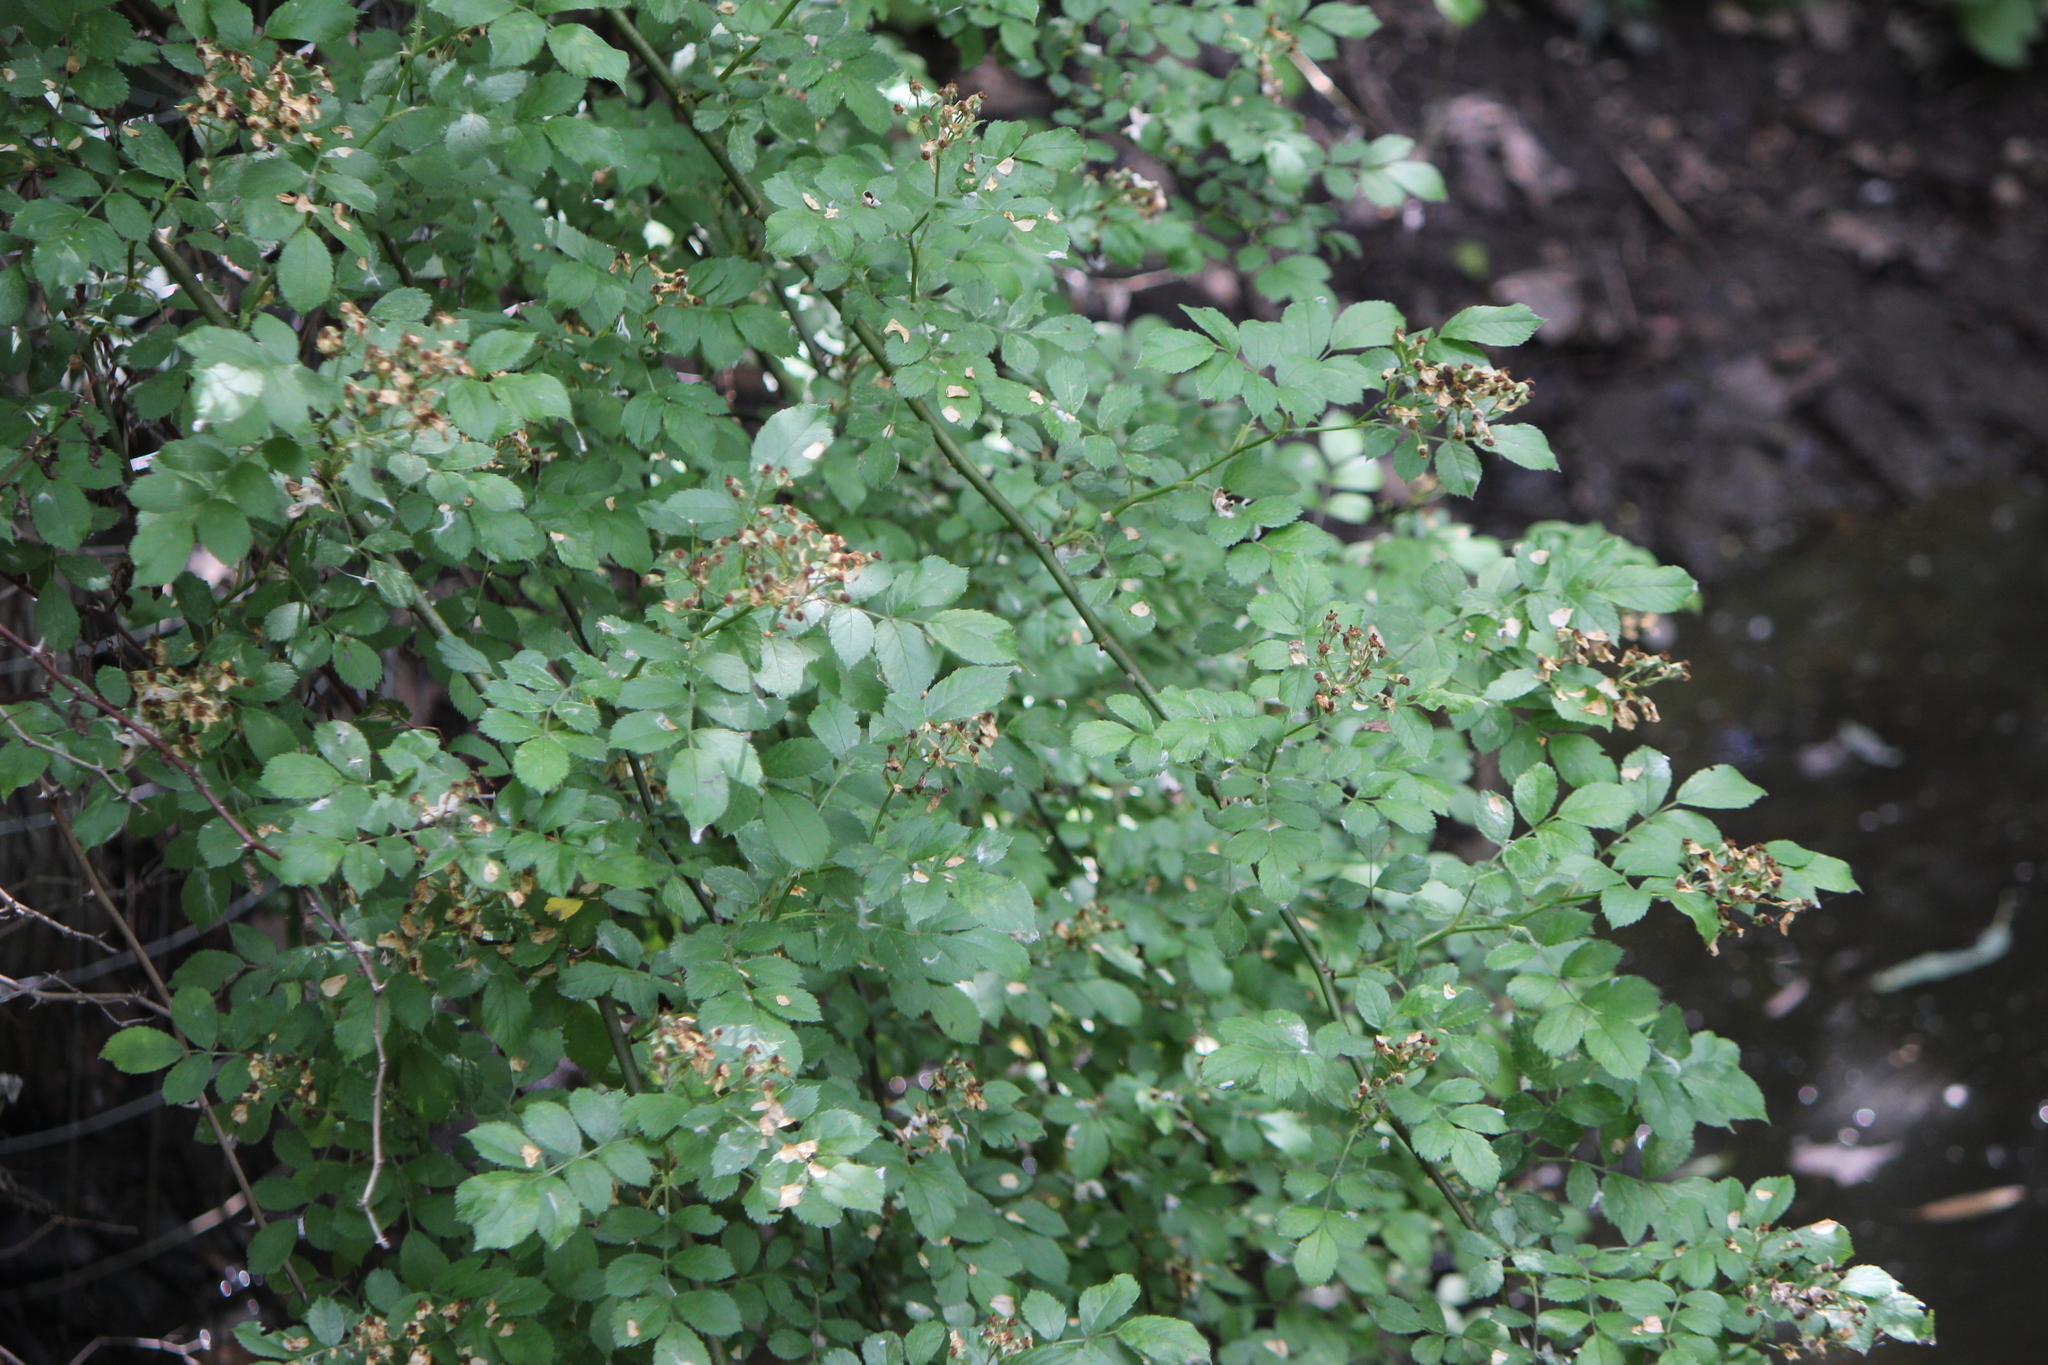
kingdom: Plantae
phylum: Tracheophyta
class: Magnoliopsida
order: Rosales
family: Rosaceae
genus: Rosa
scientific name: Rosa multiflora
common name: Multiflora rose
